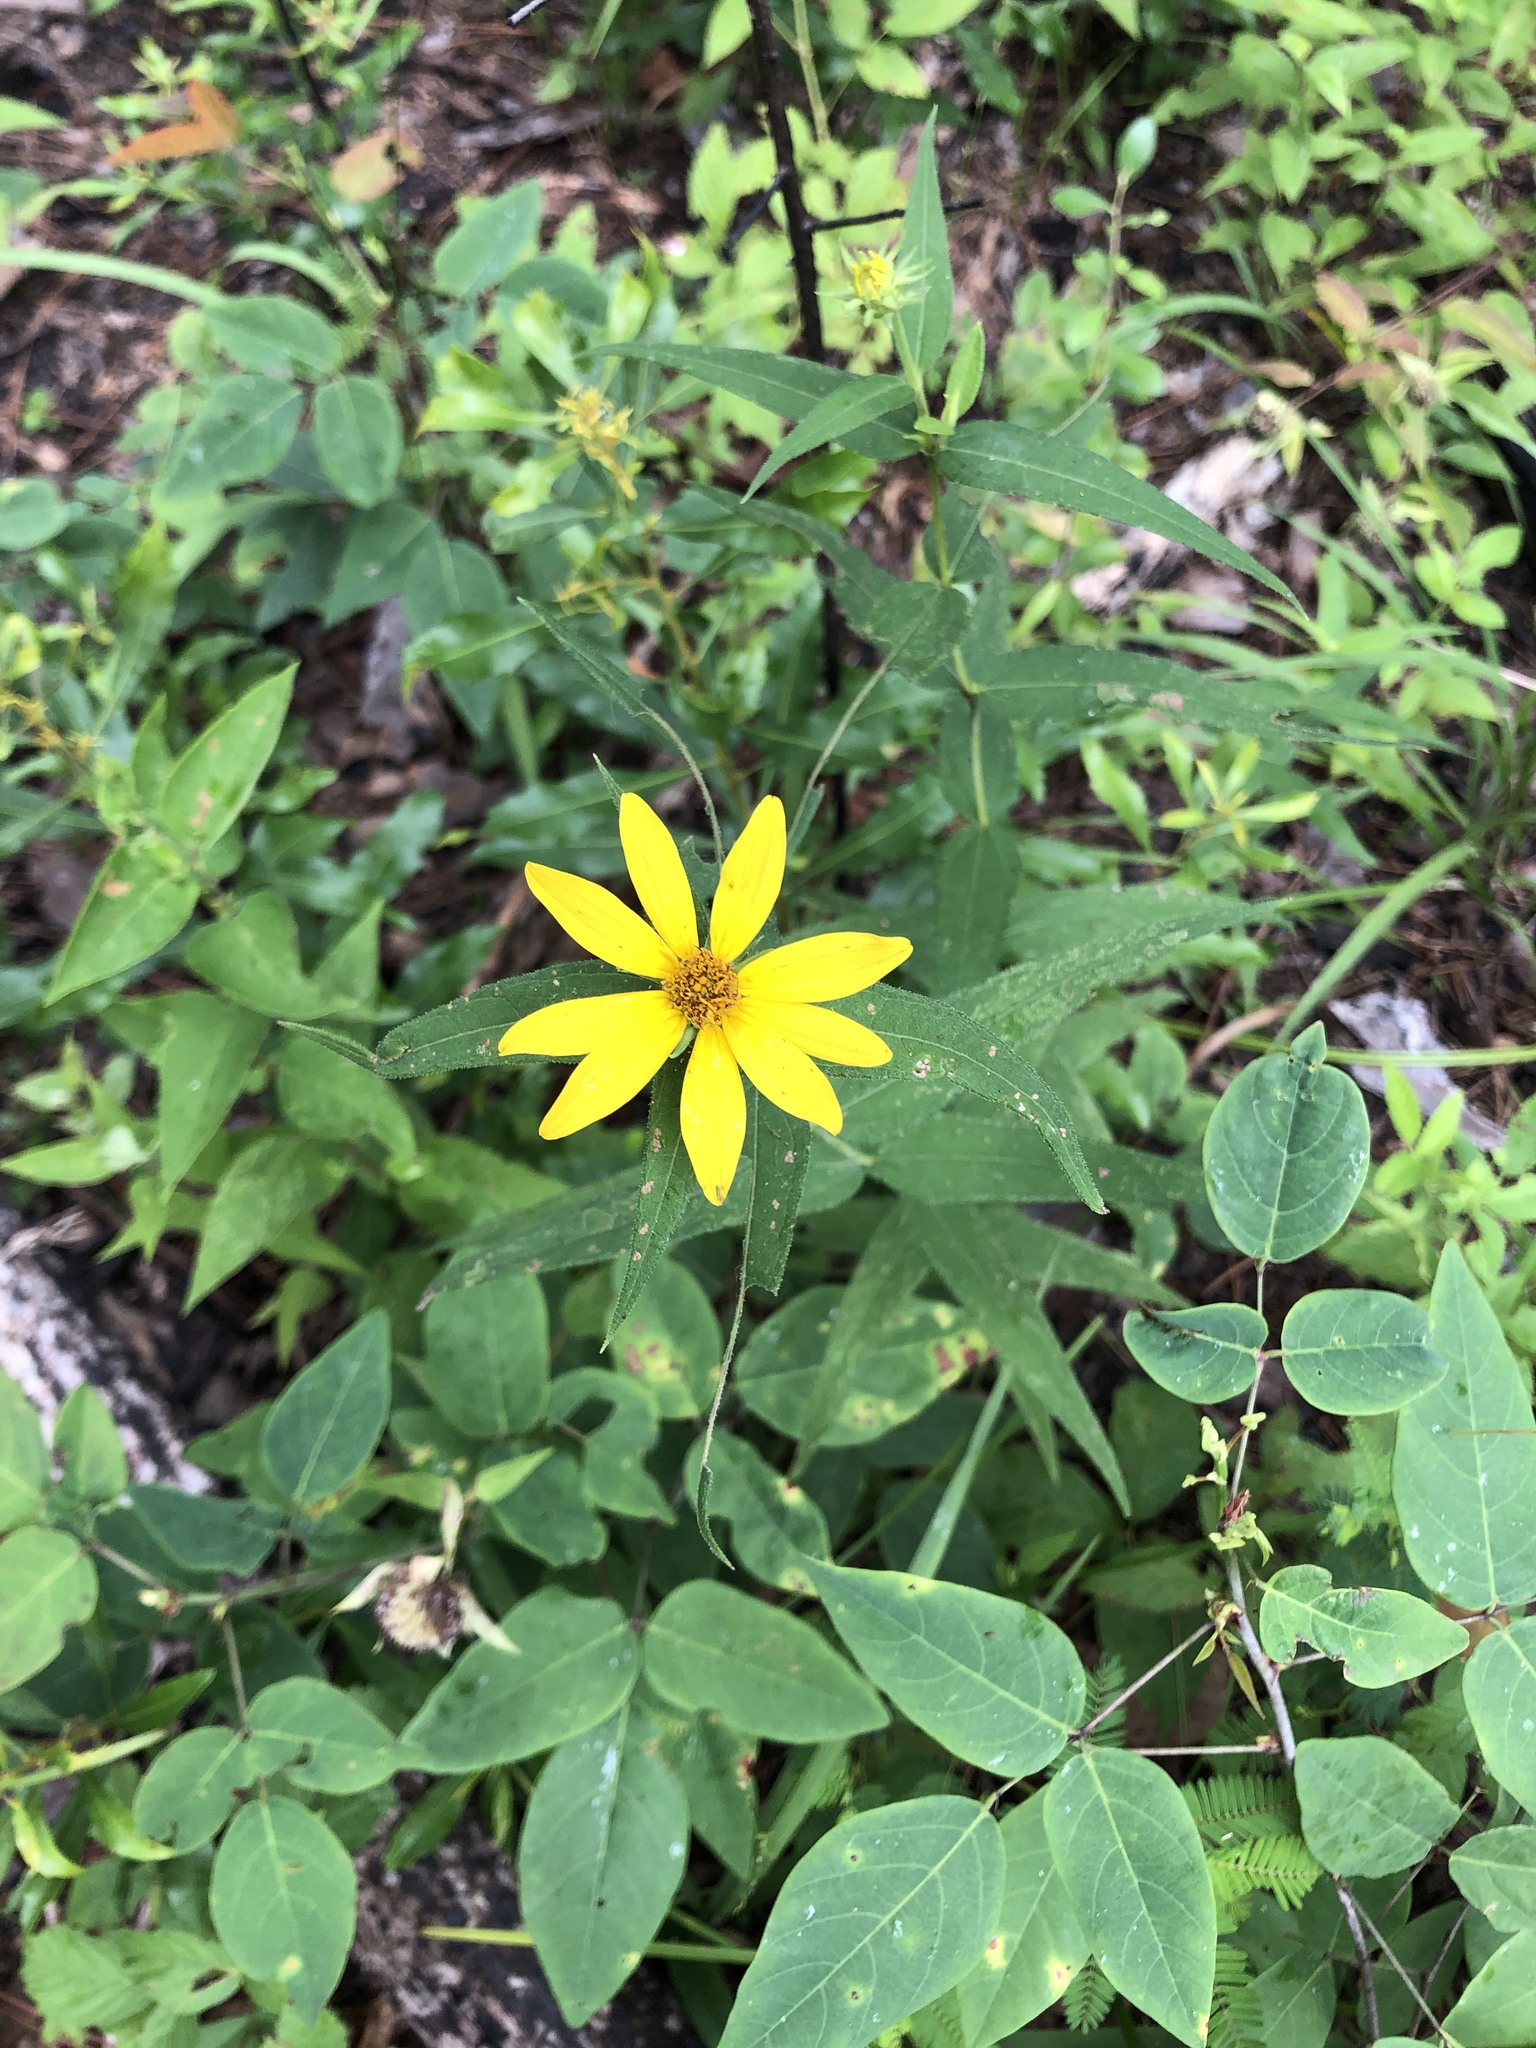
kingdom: Plantae
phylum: Tracheophyta
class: Magnoliopsida
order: Asterales
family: Asteraceae
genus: Helianthus
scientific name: Helianthus divaricatus
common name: Divergent sunflower
